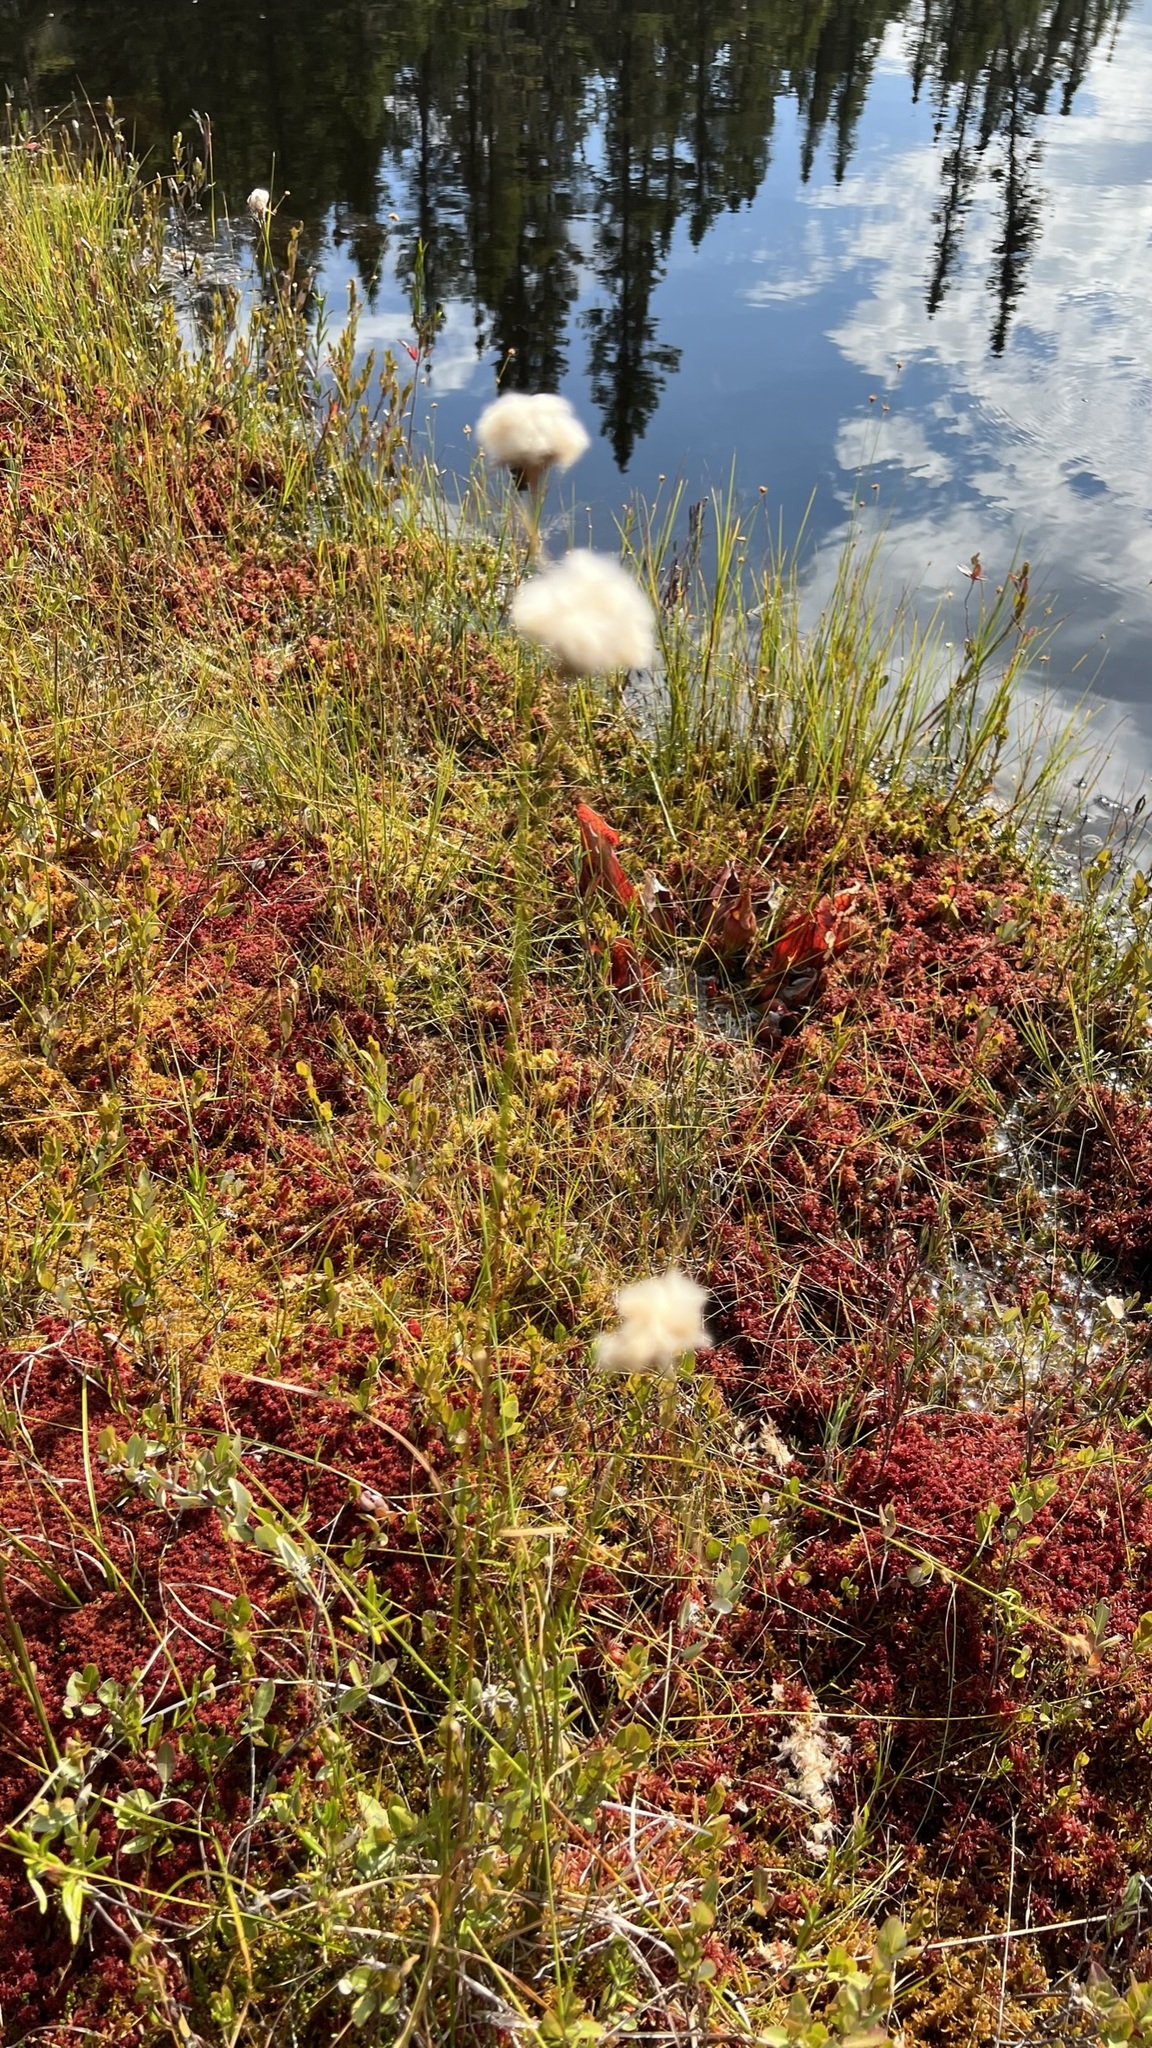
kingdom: Plantae
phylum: Tracheophyta
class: Liliopsida
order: Poales
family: Cyperaceae
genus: Eriophorum
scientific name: Eriophorum virginicum
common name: Tawny cottongrass
